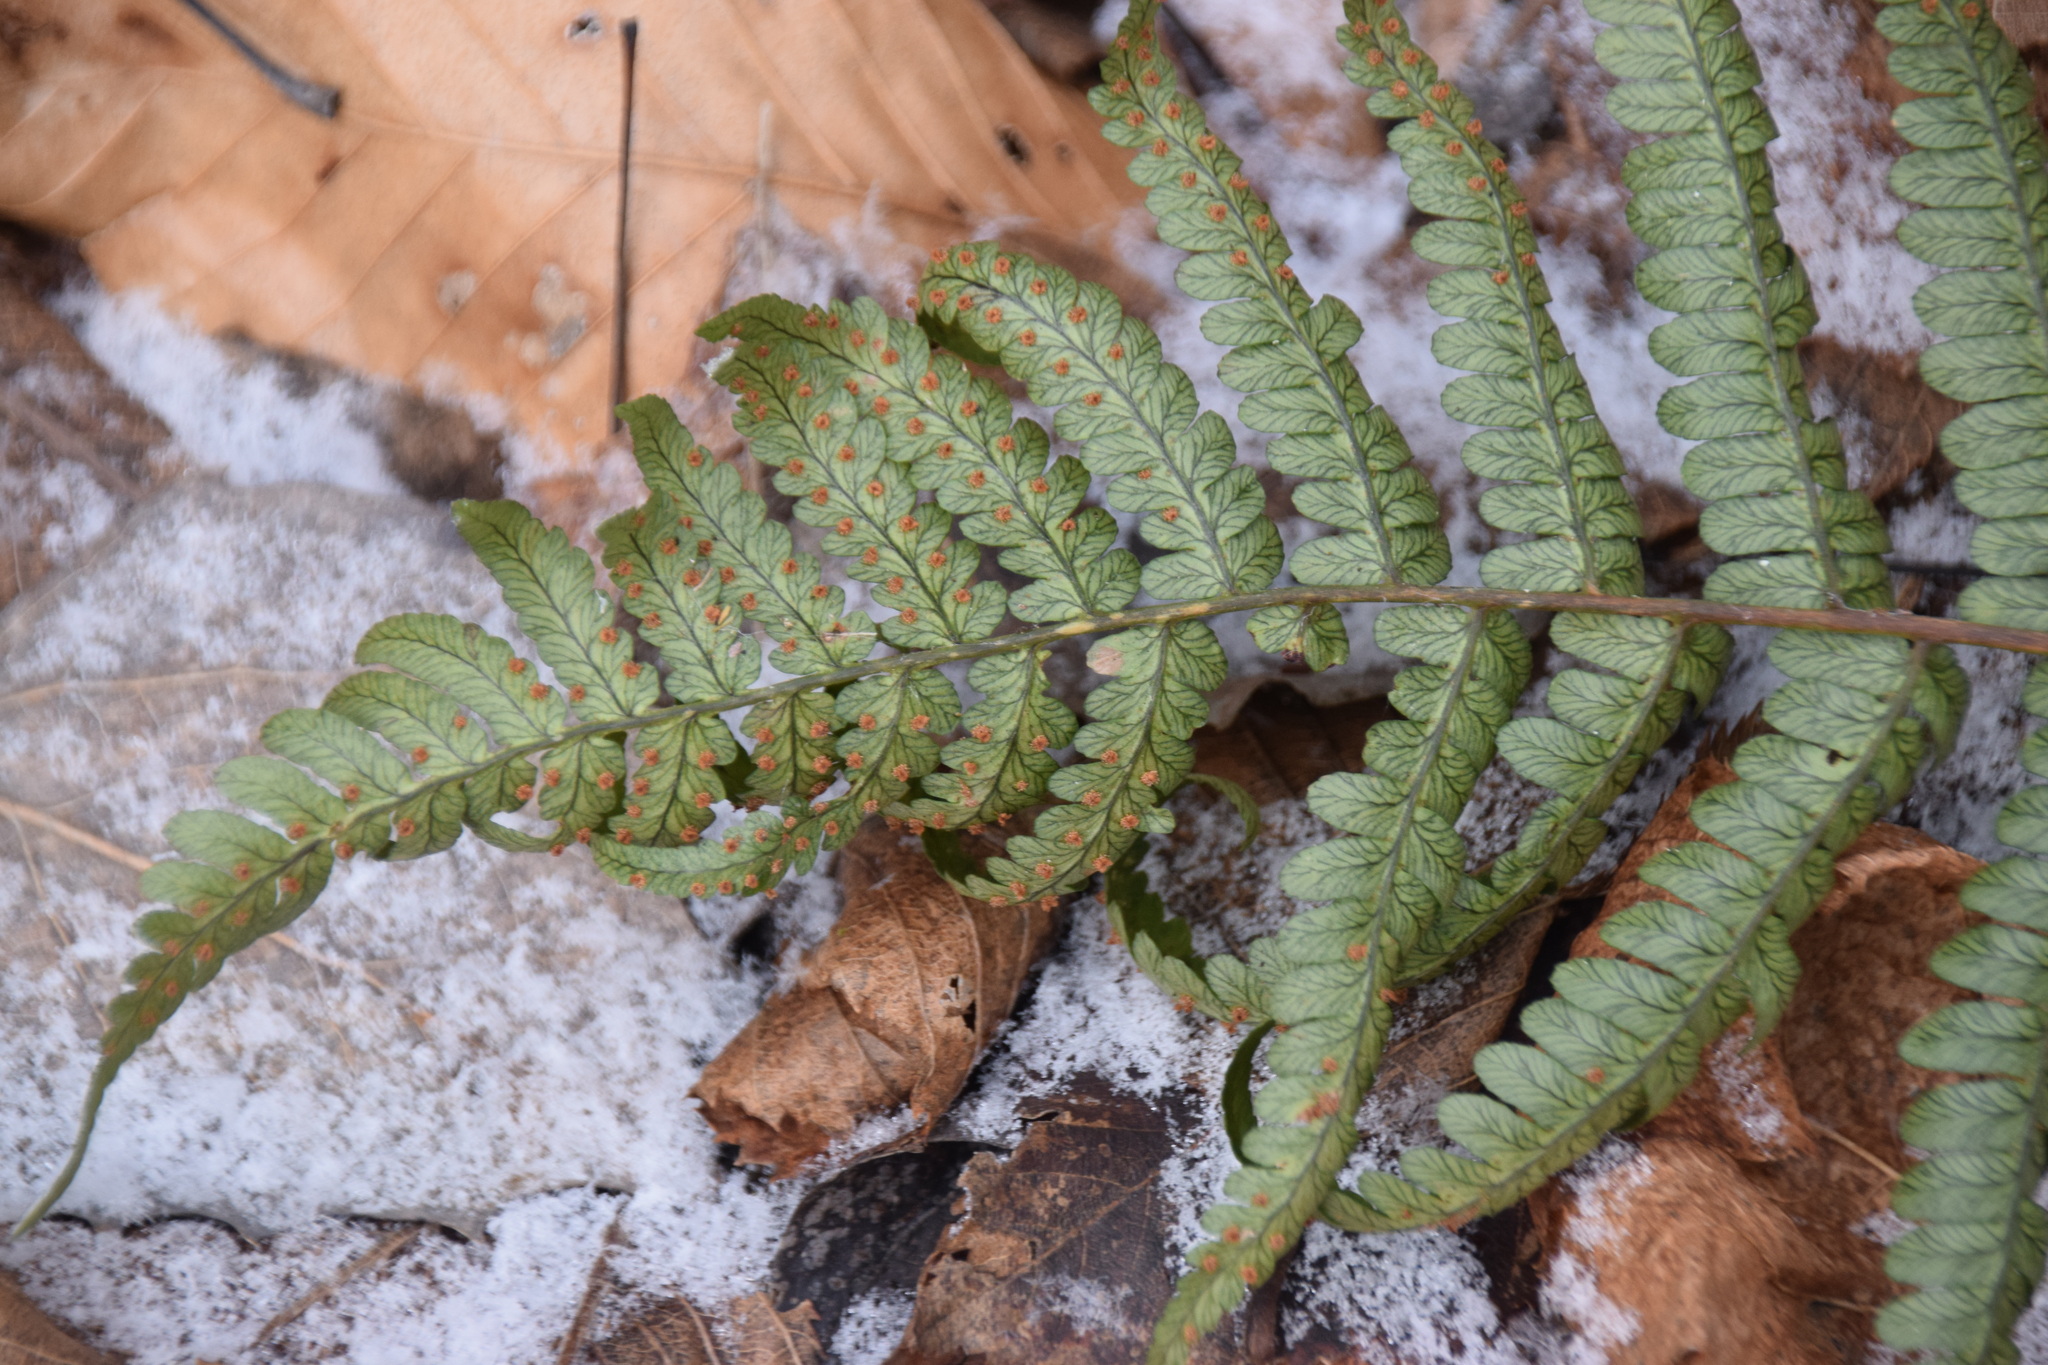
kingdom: Plantae
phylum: Tracheophyta
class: Polypodiopsida
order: Polypodiales
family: Dryopteridaceae
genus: Dryopteris
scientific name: Dryopteris marginalis
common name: Marginal wood fern
